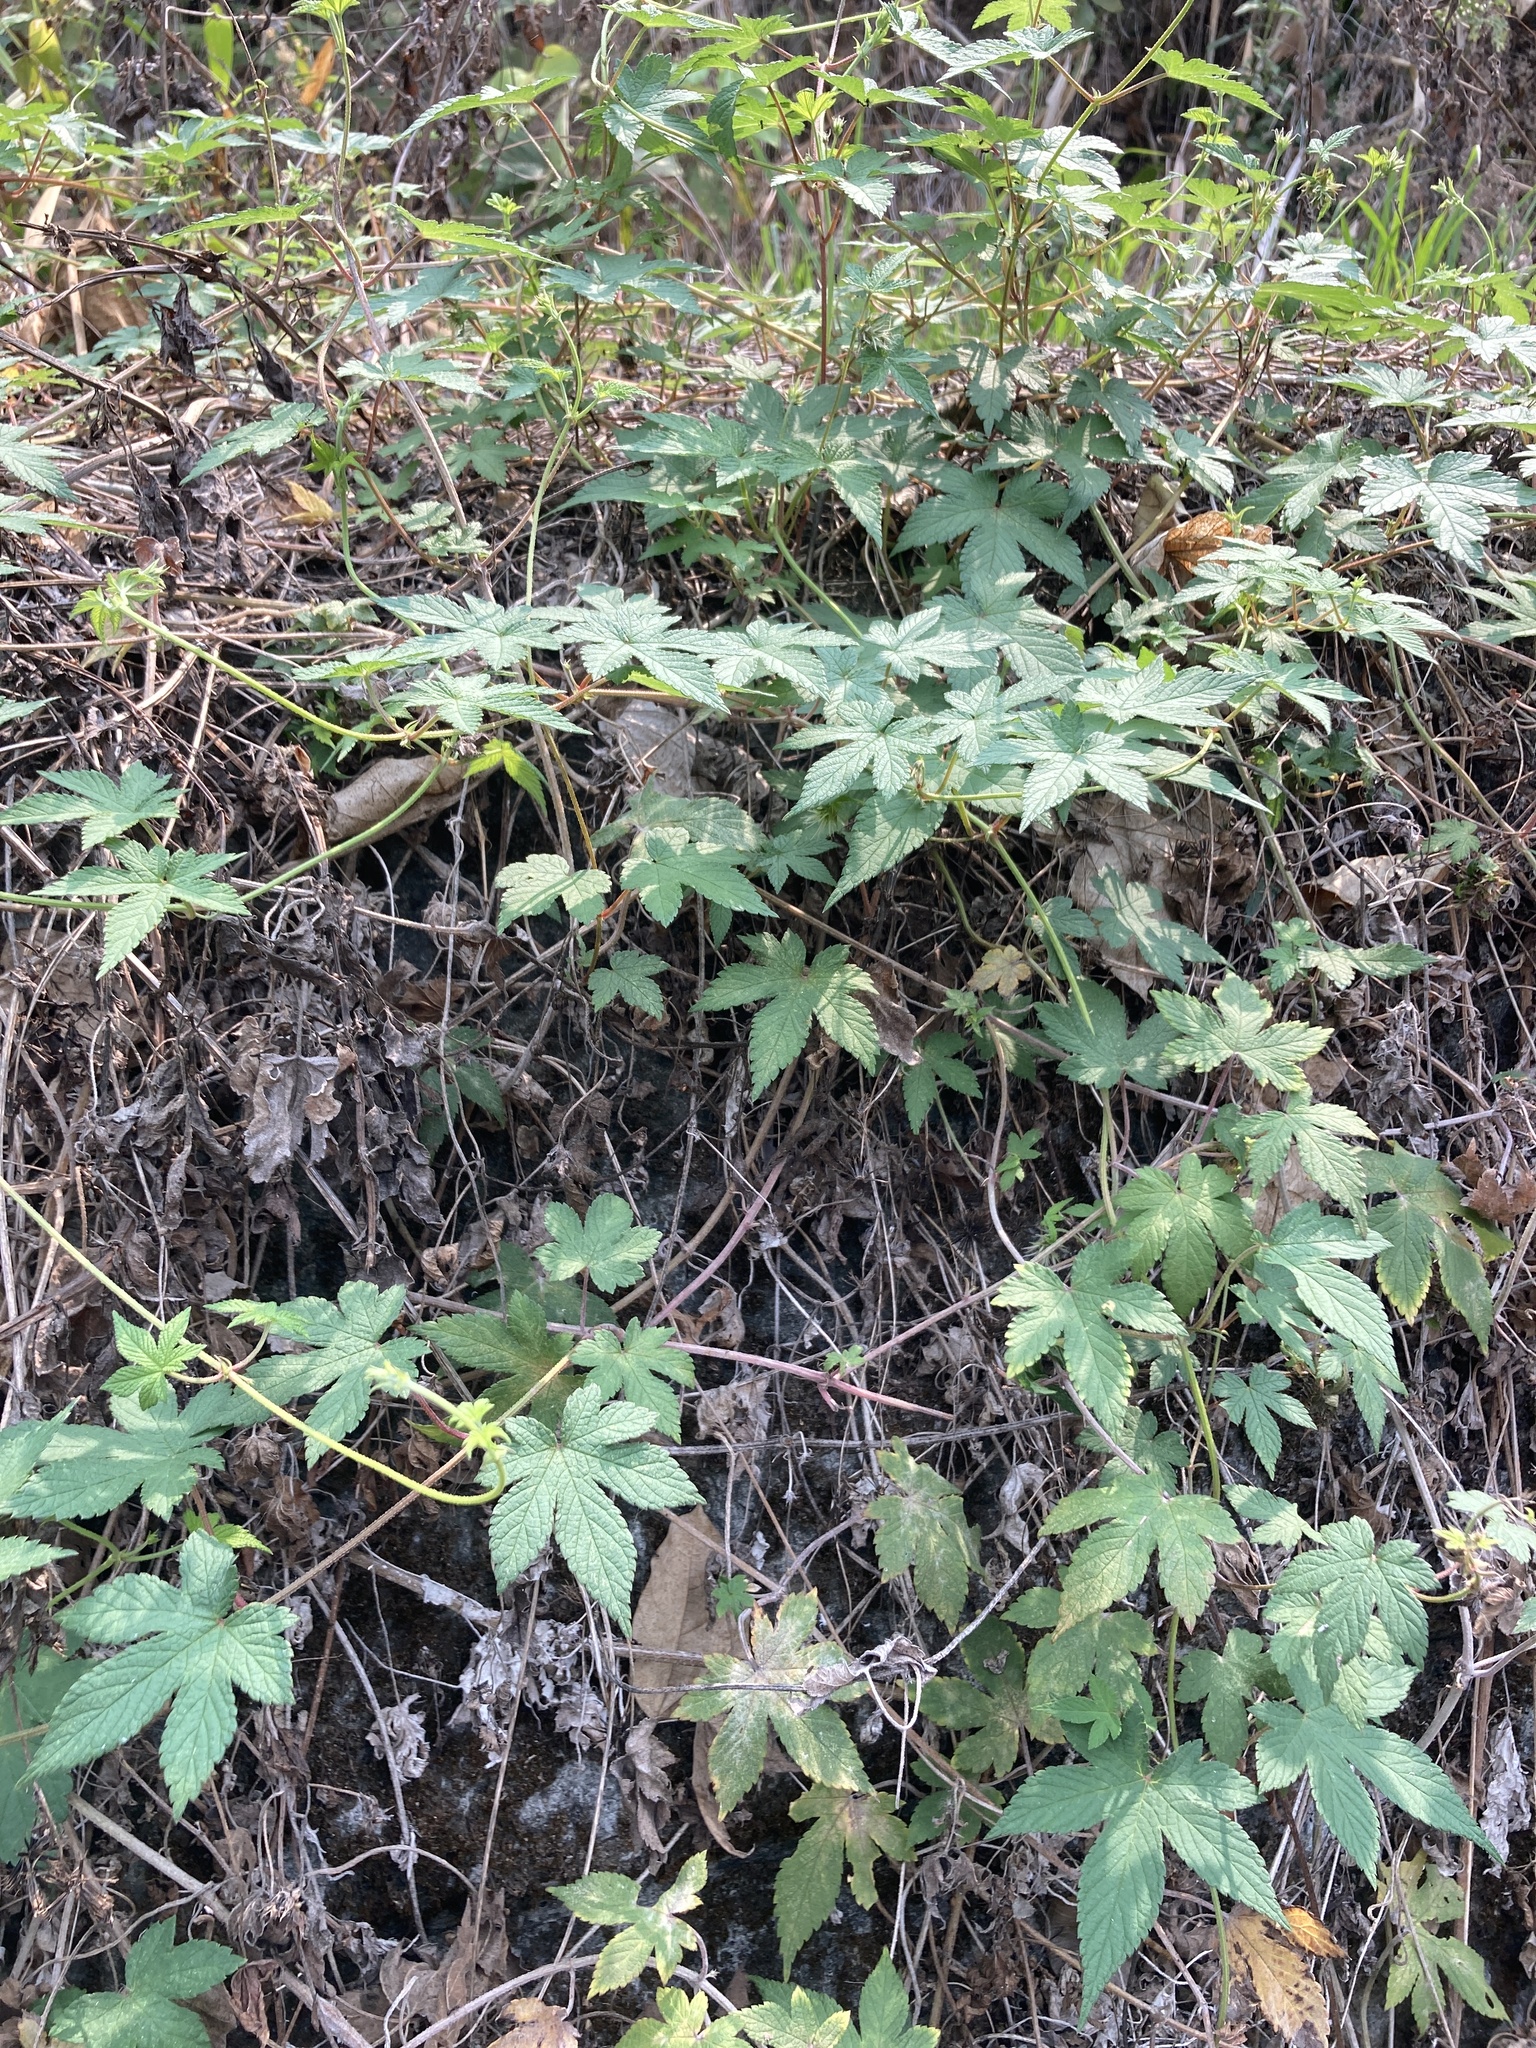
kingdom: Plantae
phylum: Tracheophyta
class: Magnoliopsida
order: Rosales
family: Cannabaceae
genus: Humulus
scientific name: Humulus scandens
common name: Japanese hop
